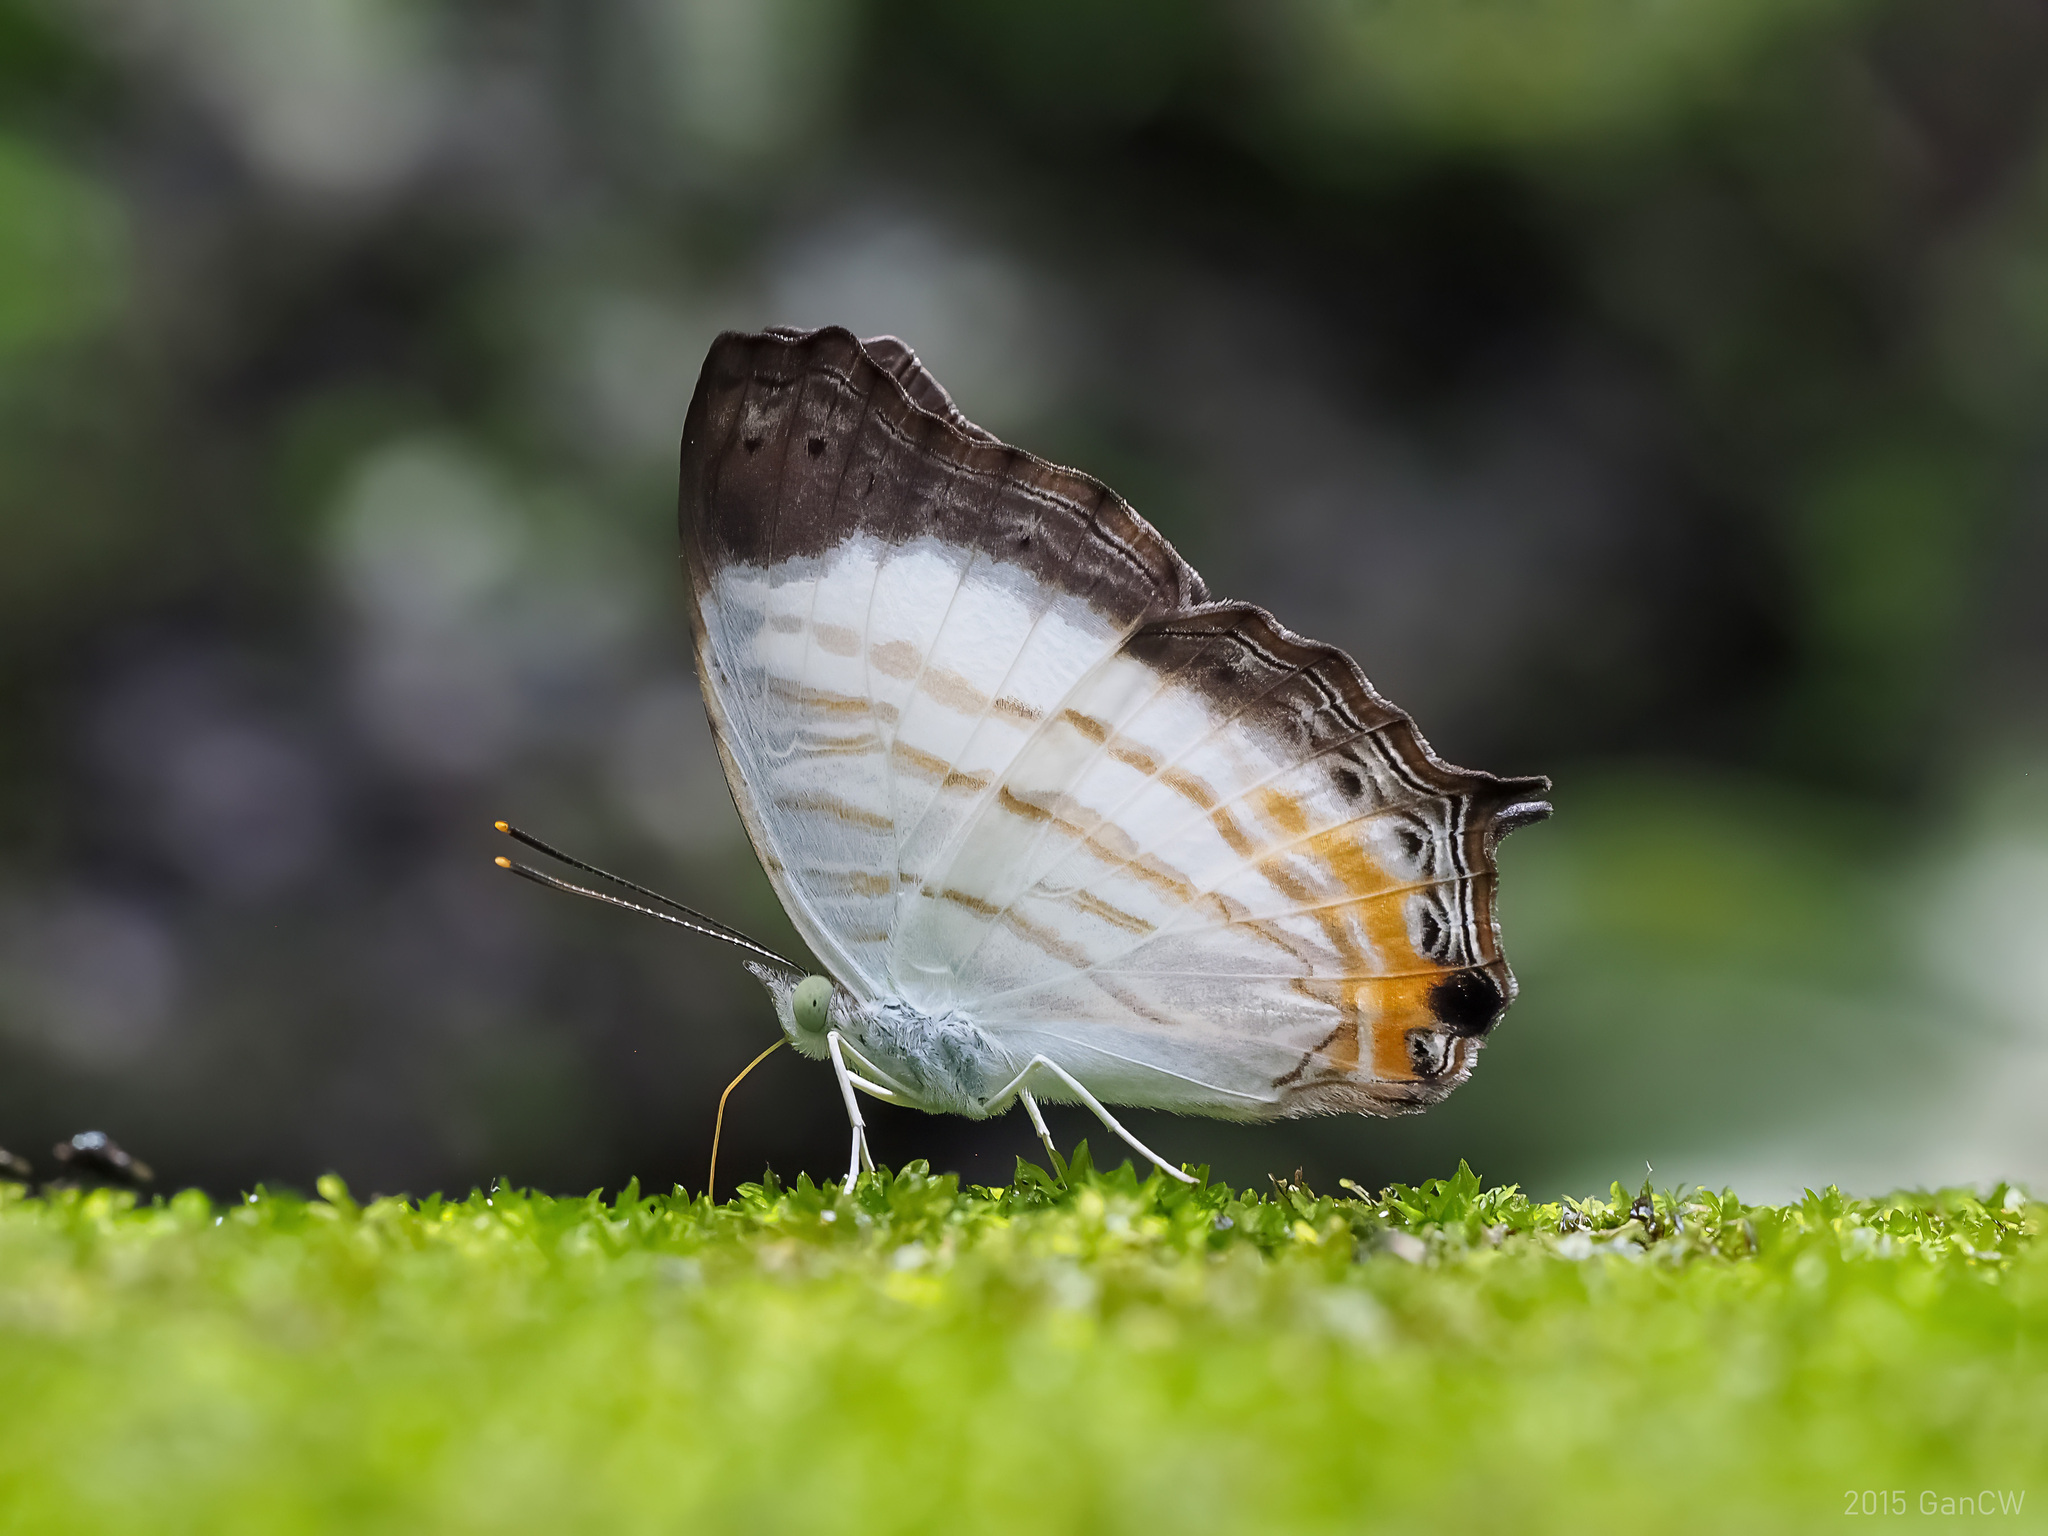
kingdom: Animalia
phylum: Arthropoda
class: Insecta
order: Lepidoptera
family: Nymphalidae
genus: Cyrestis
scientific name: Cyrestis themire
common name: Little mapwing
